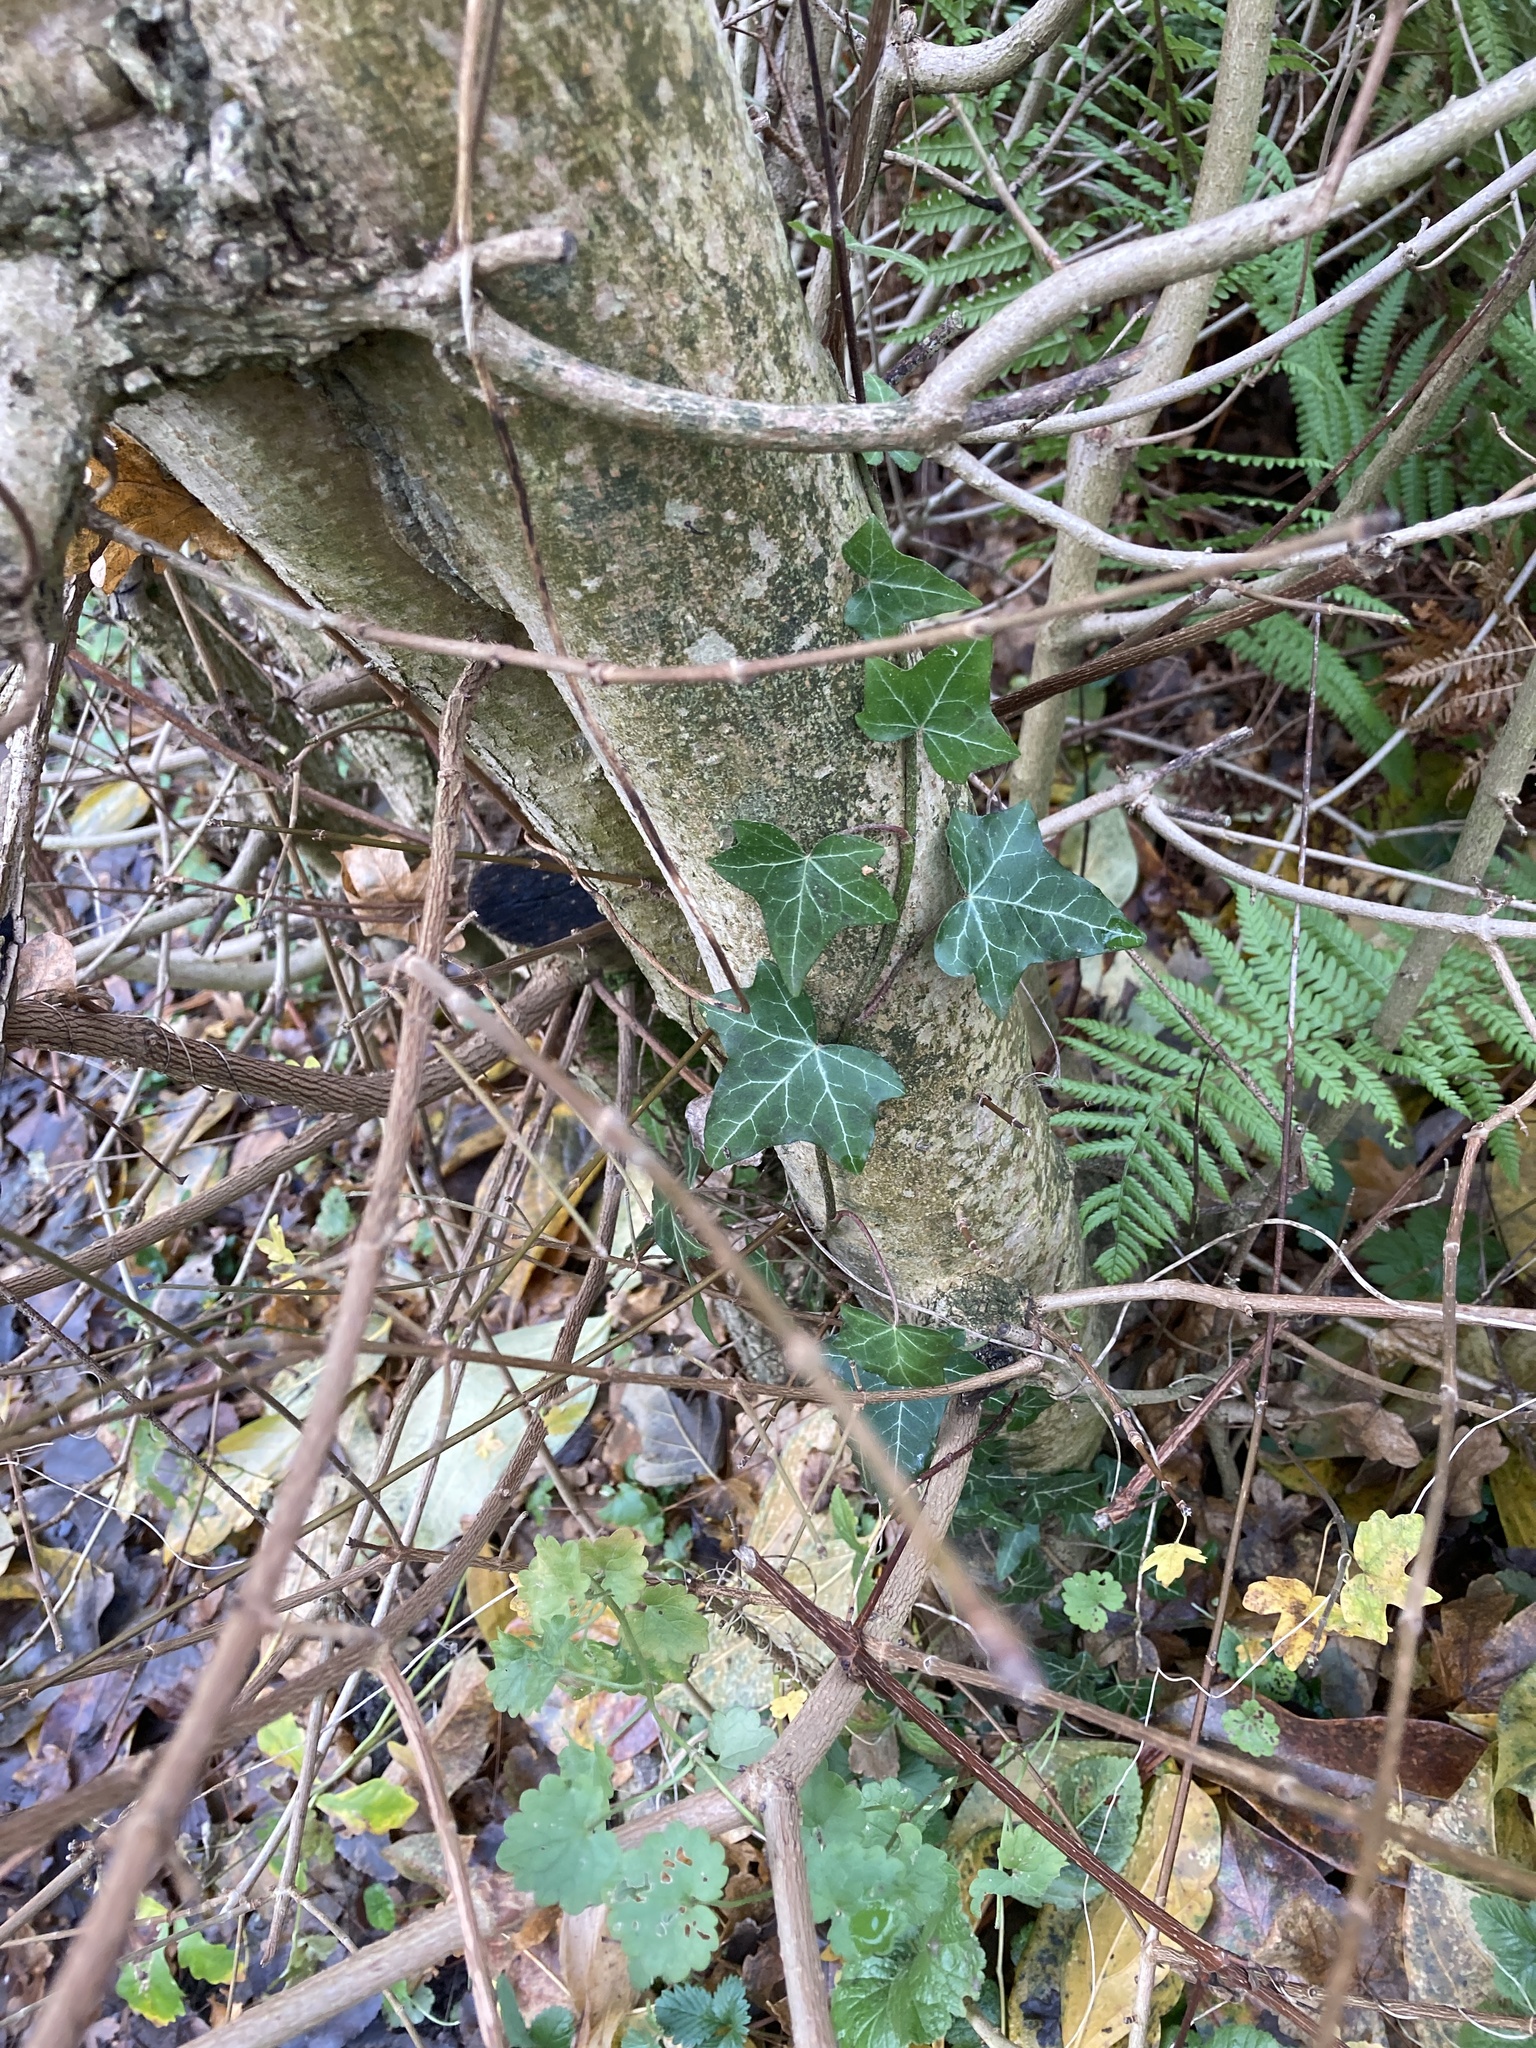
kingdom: Plantae
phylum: Tracheophyta
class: Magnoliopsida
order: Apiales
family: Araliaceae
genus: Hedera
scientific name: Hedera helix
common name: Ivy
